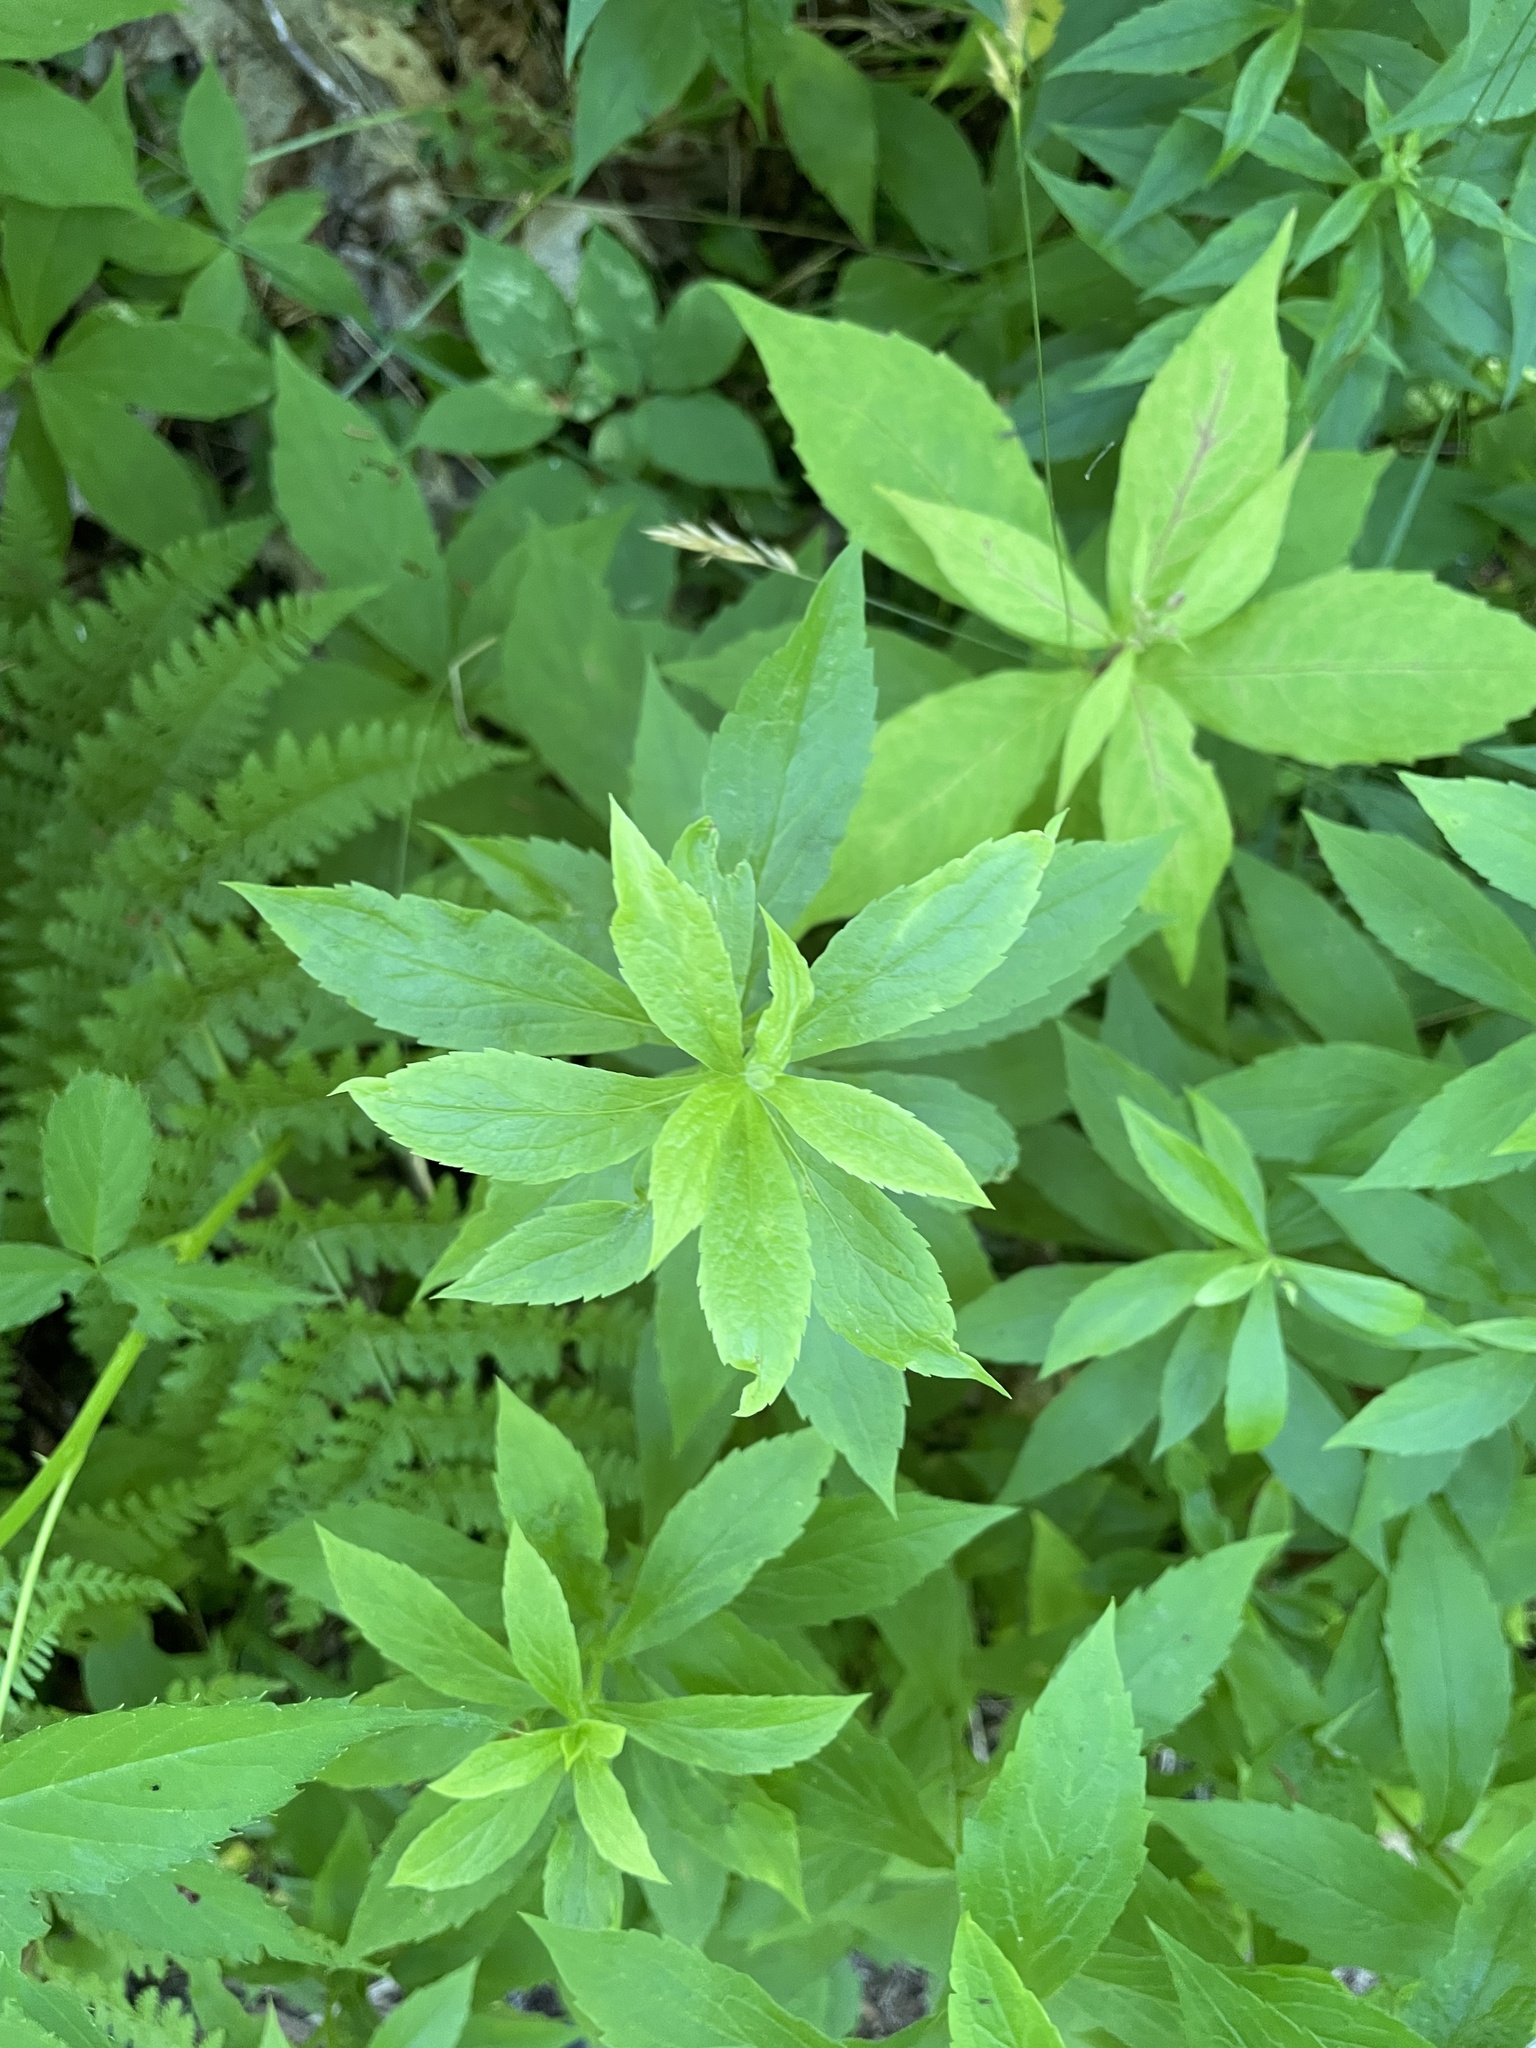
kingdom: Plantae
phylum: Tracheophyta
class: Magnoliopsida
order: Asterales
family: Asteraceae
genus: Solidago
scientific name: Solidago rugosa
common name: Rough-stemmed goldenrod
